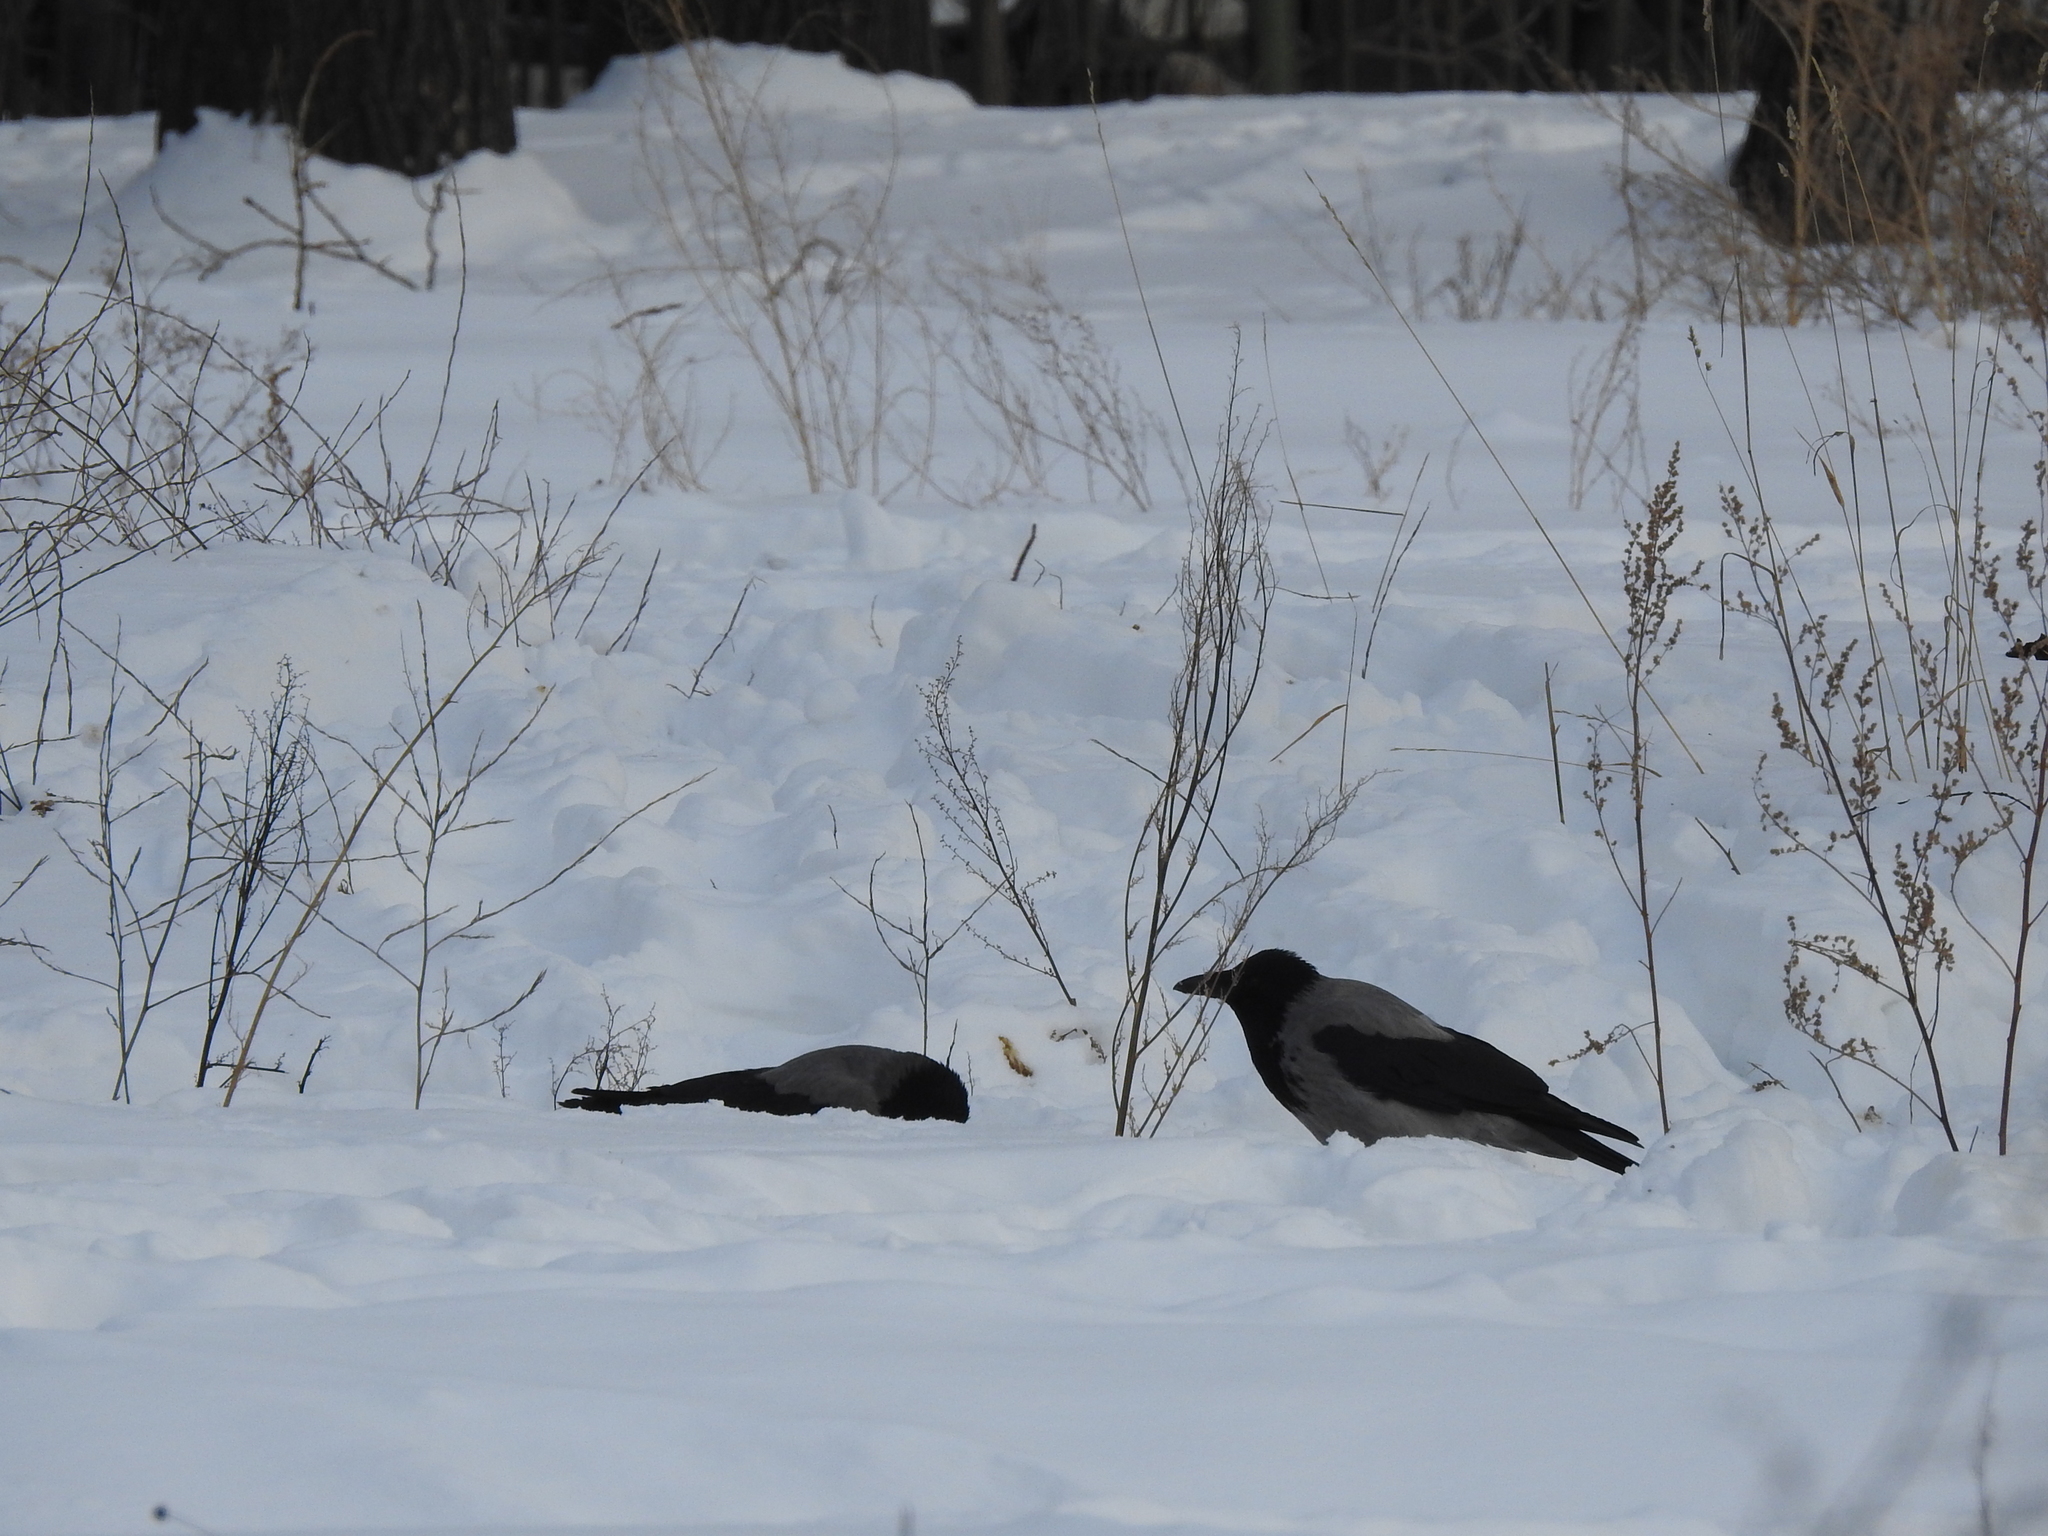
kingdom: Animalia
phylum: Chordata
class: Aves
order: Passeriformes
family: Corvidae
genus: Corvus
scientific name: Corvus cornix
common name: Hooded crow
